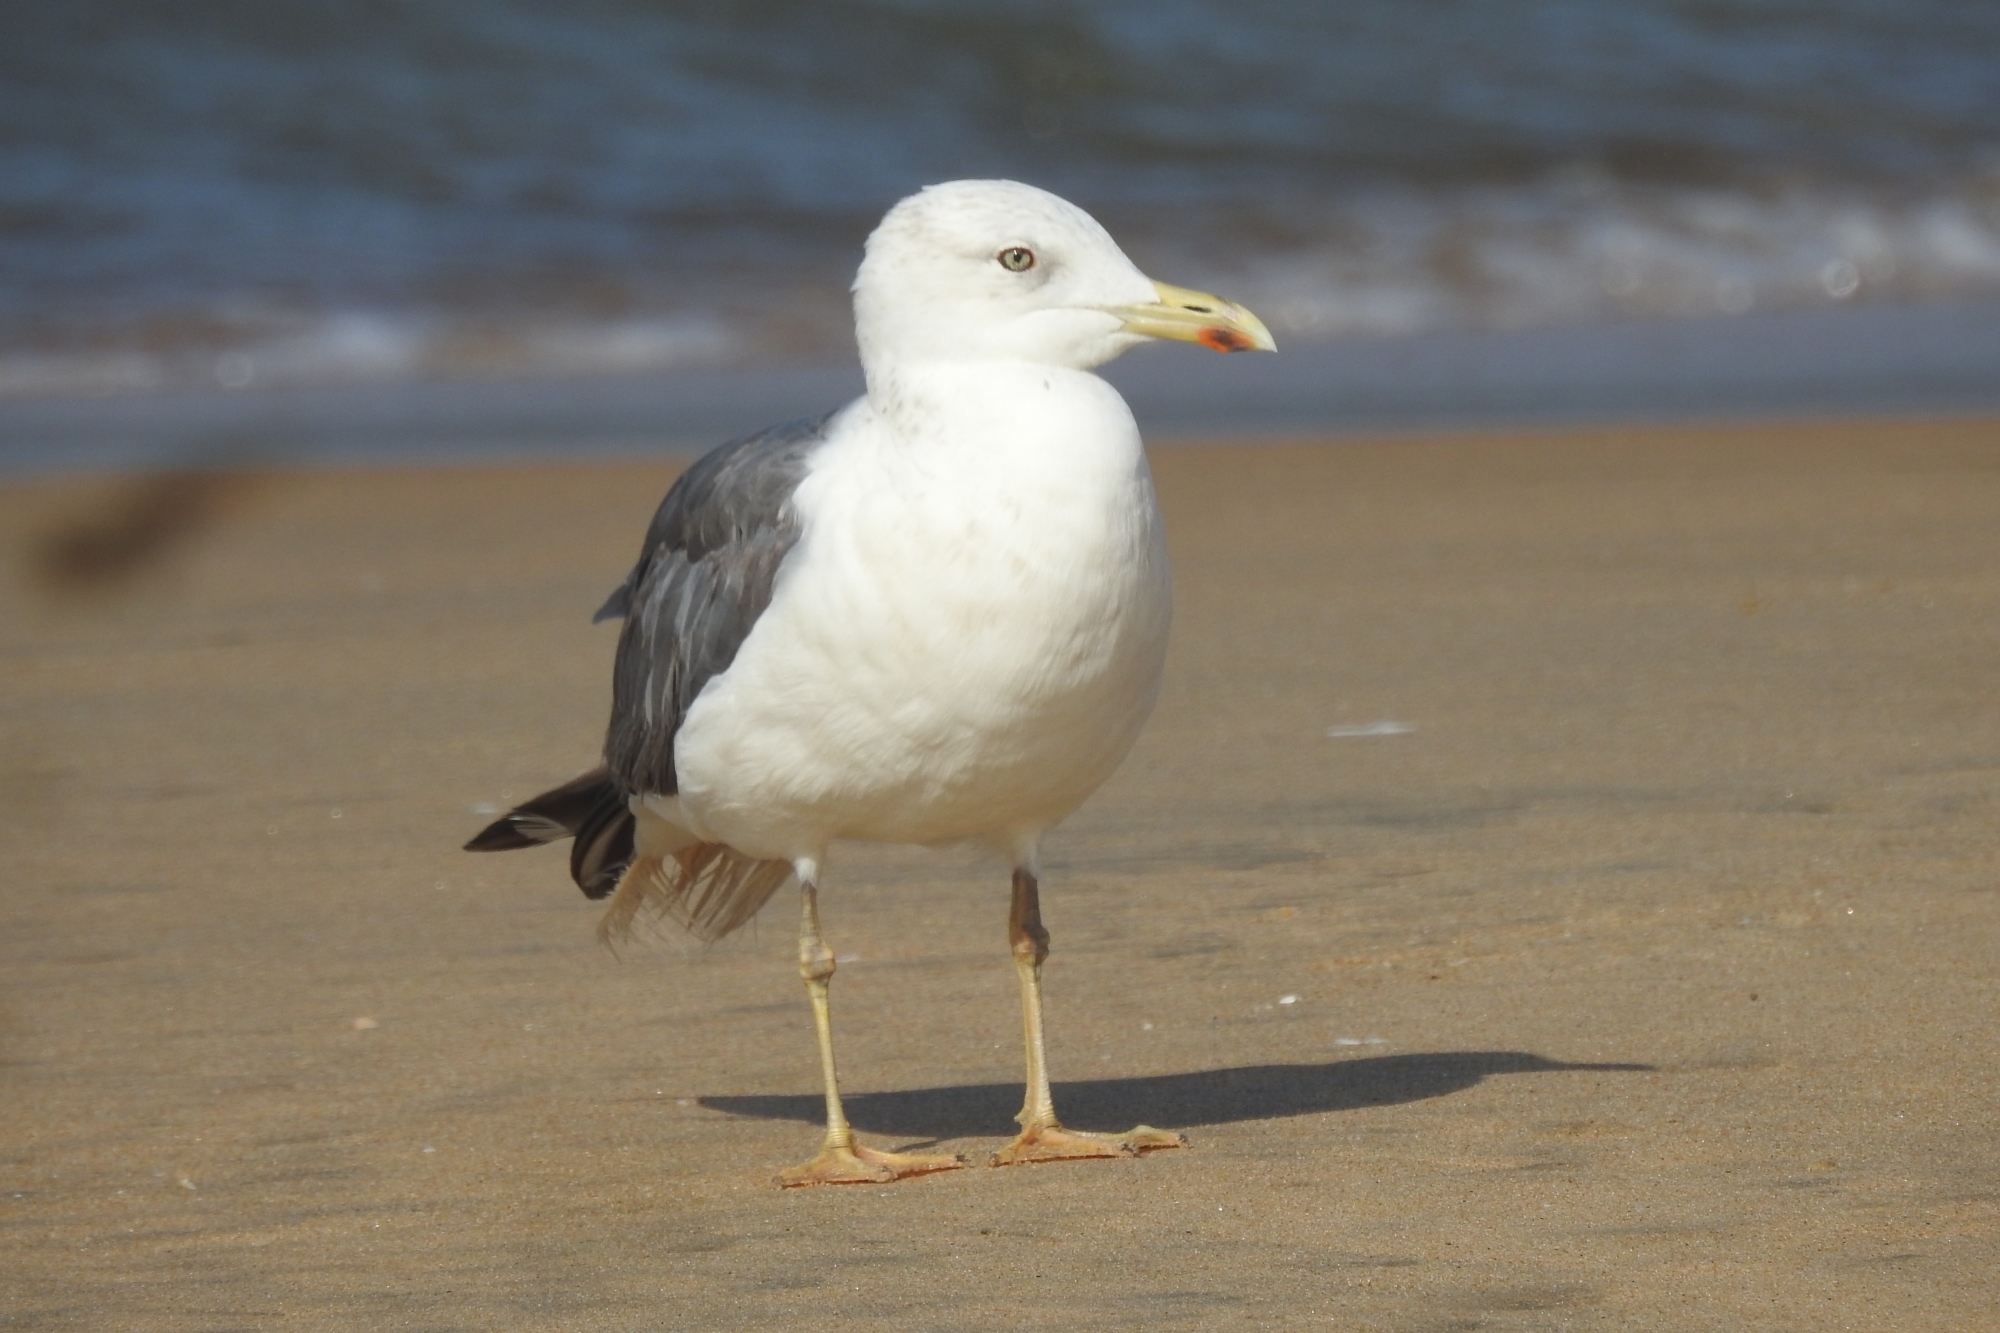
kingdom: Animalia
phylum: Chordata
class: Aves
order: Charadriiformes
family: Laridae
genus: Larus
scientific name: Larus fuscus
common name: Lesser black-backed gull
